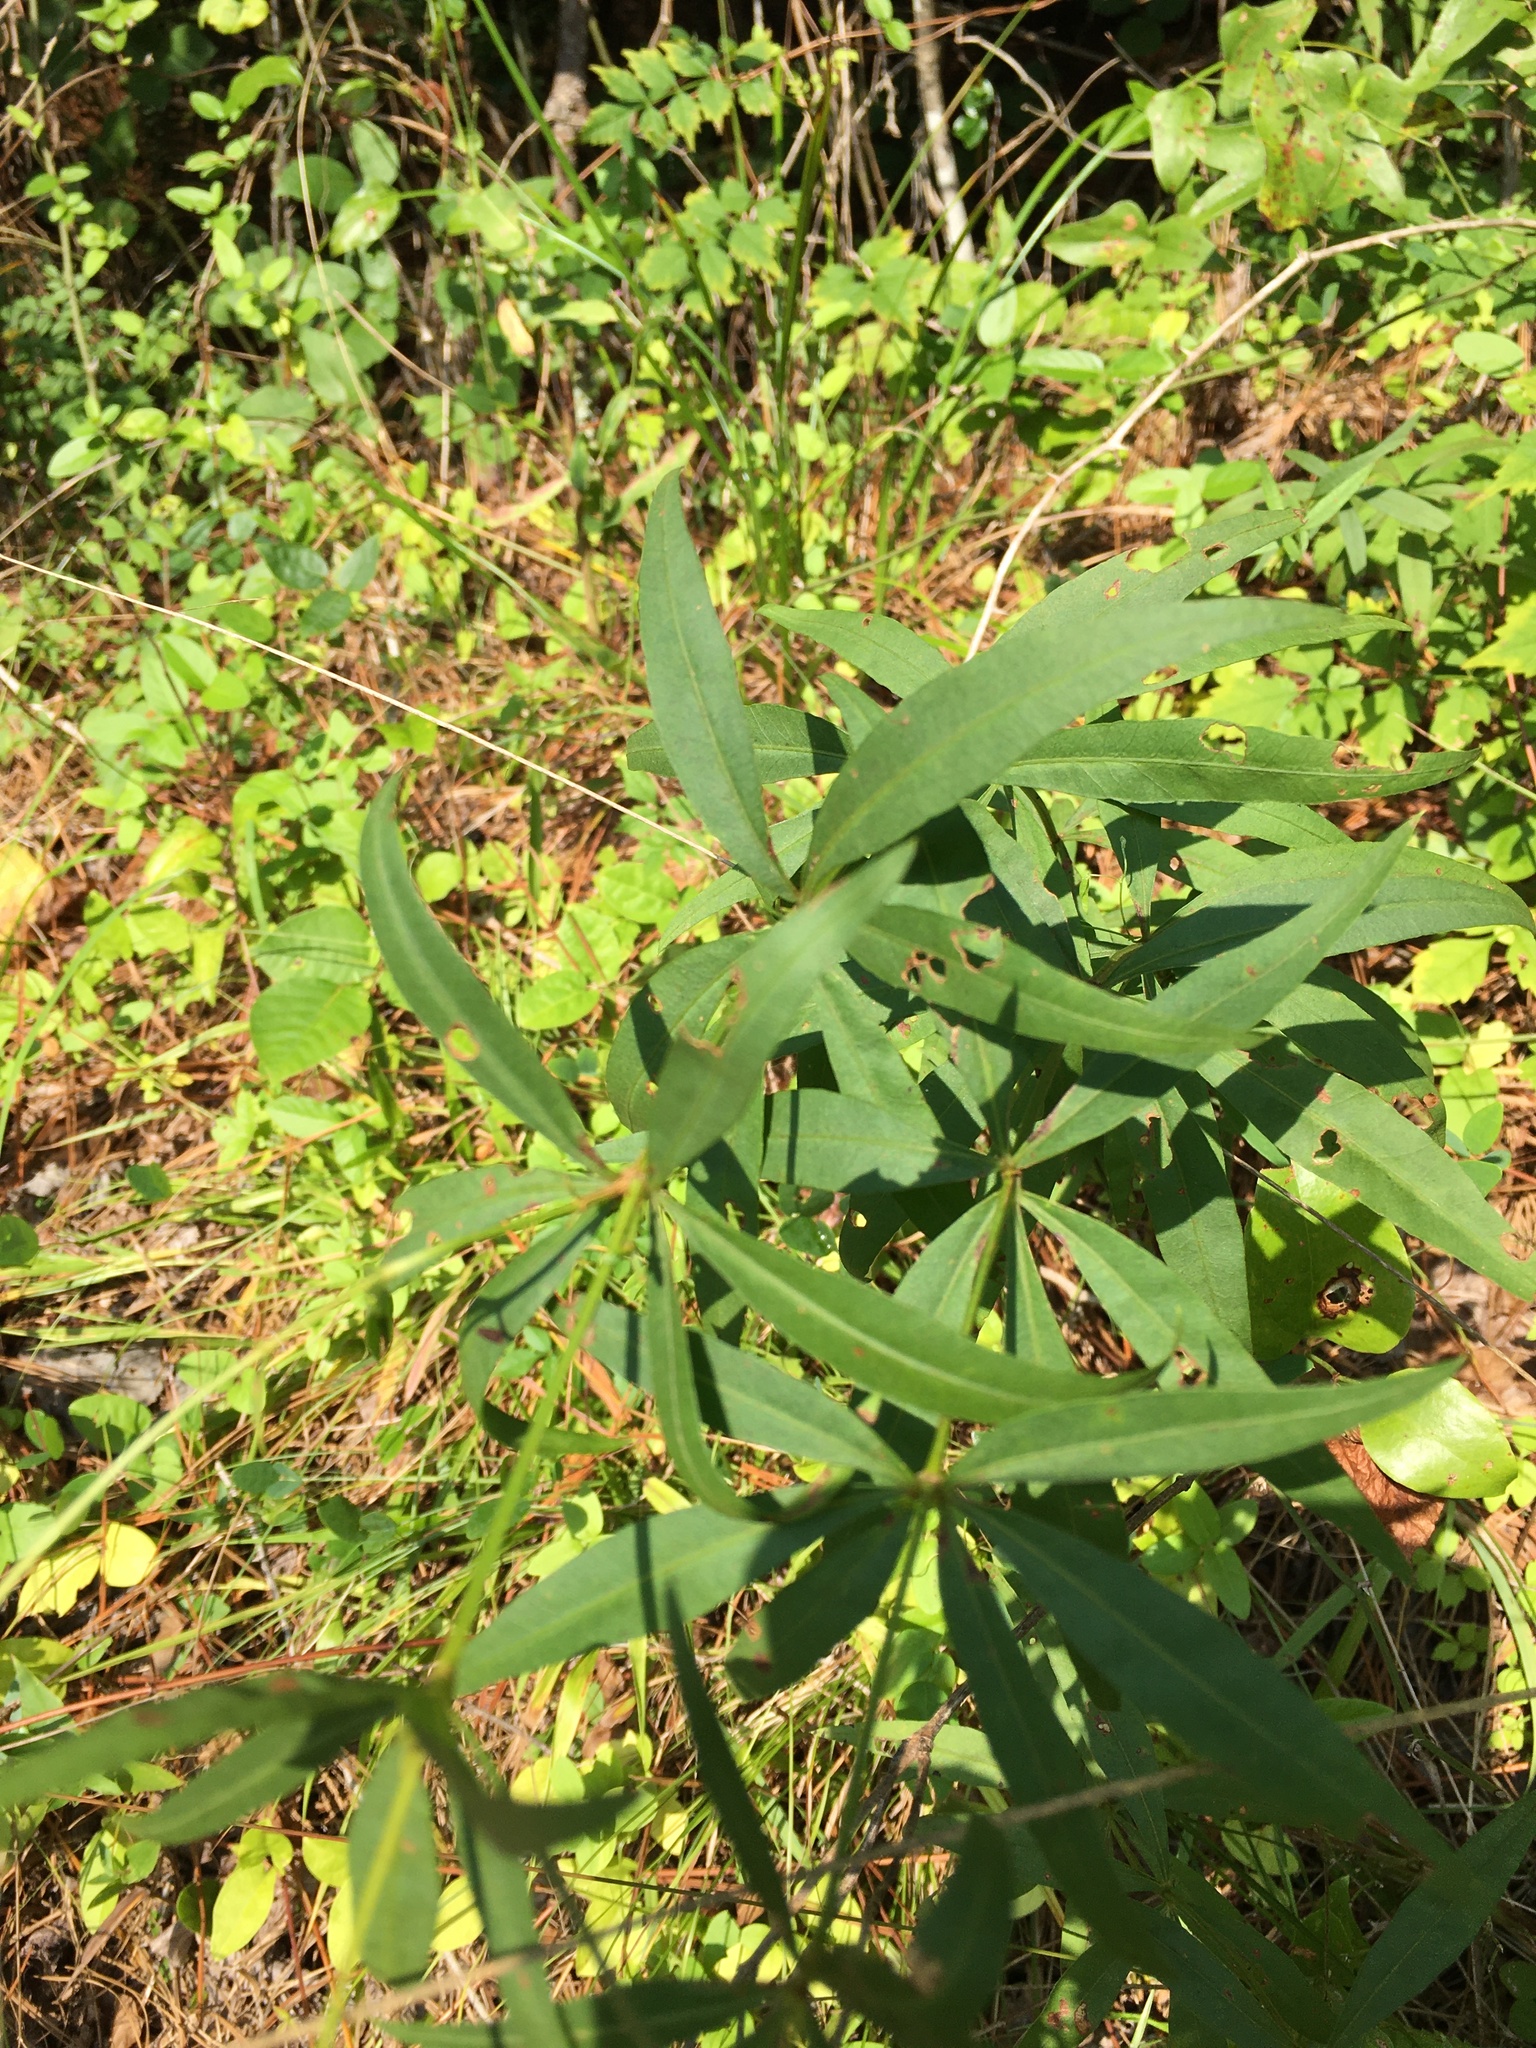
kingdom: Plantae
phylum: Tracheophyta
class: Magnoliopsida
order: Asterales
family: Asteraceae
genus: Coreopsis
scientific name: Coreopsis major
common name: Forest tickseed
